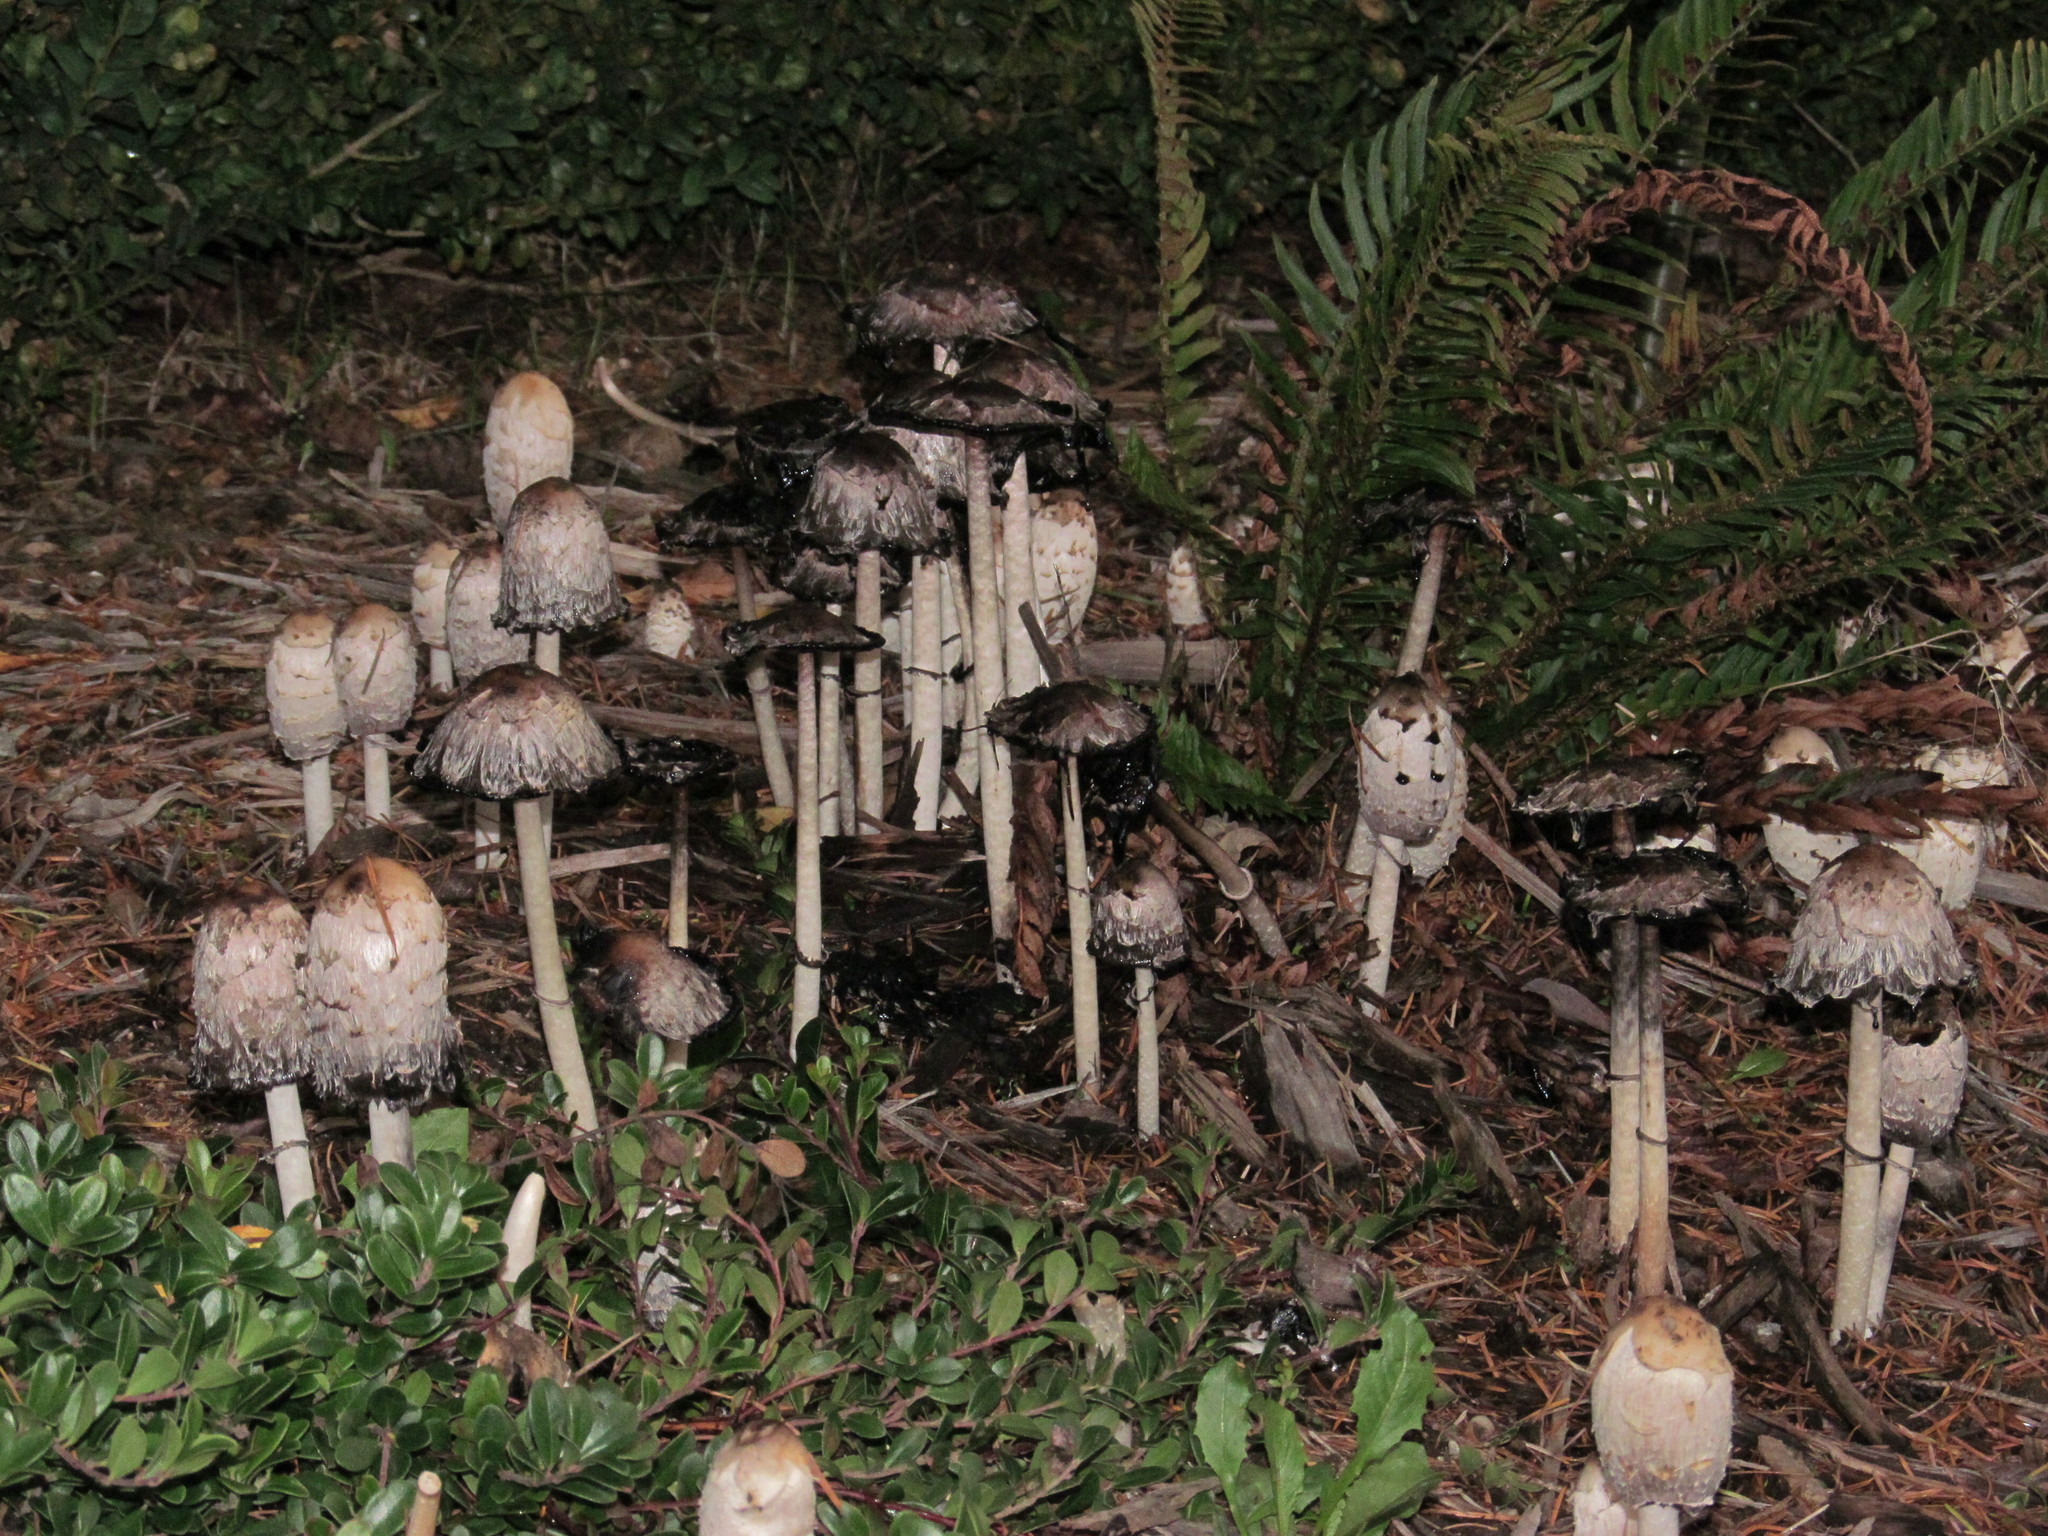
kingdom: Fungi
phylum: Basidiomycota
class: Agaricomycetes
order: Agaricales
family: Agaricaceae
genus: Coprinus
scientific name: Coprinus comatus
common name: Lawyer's wig
